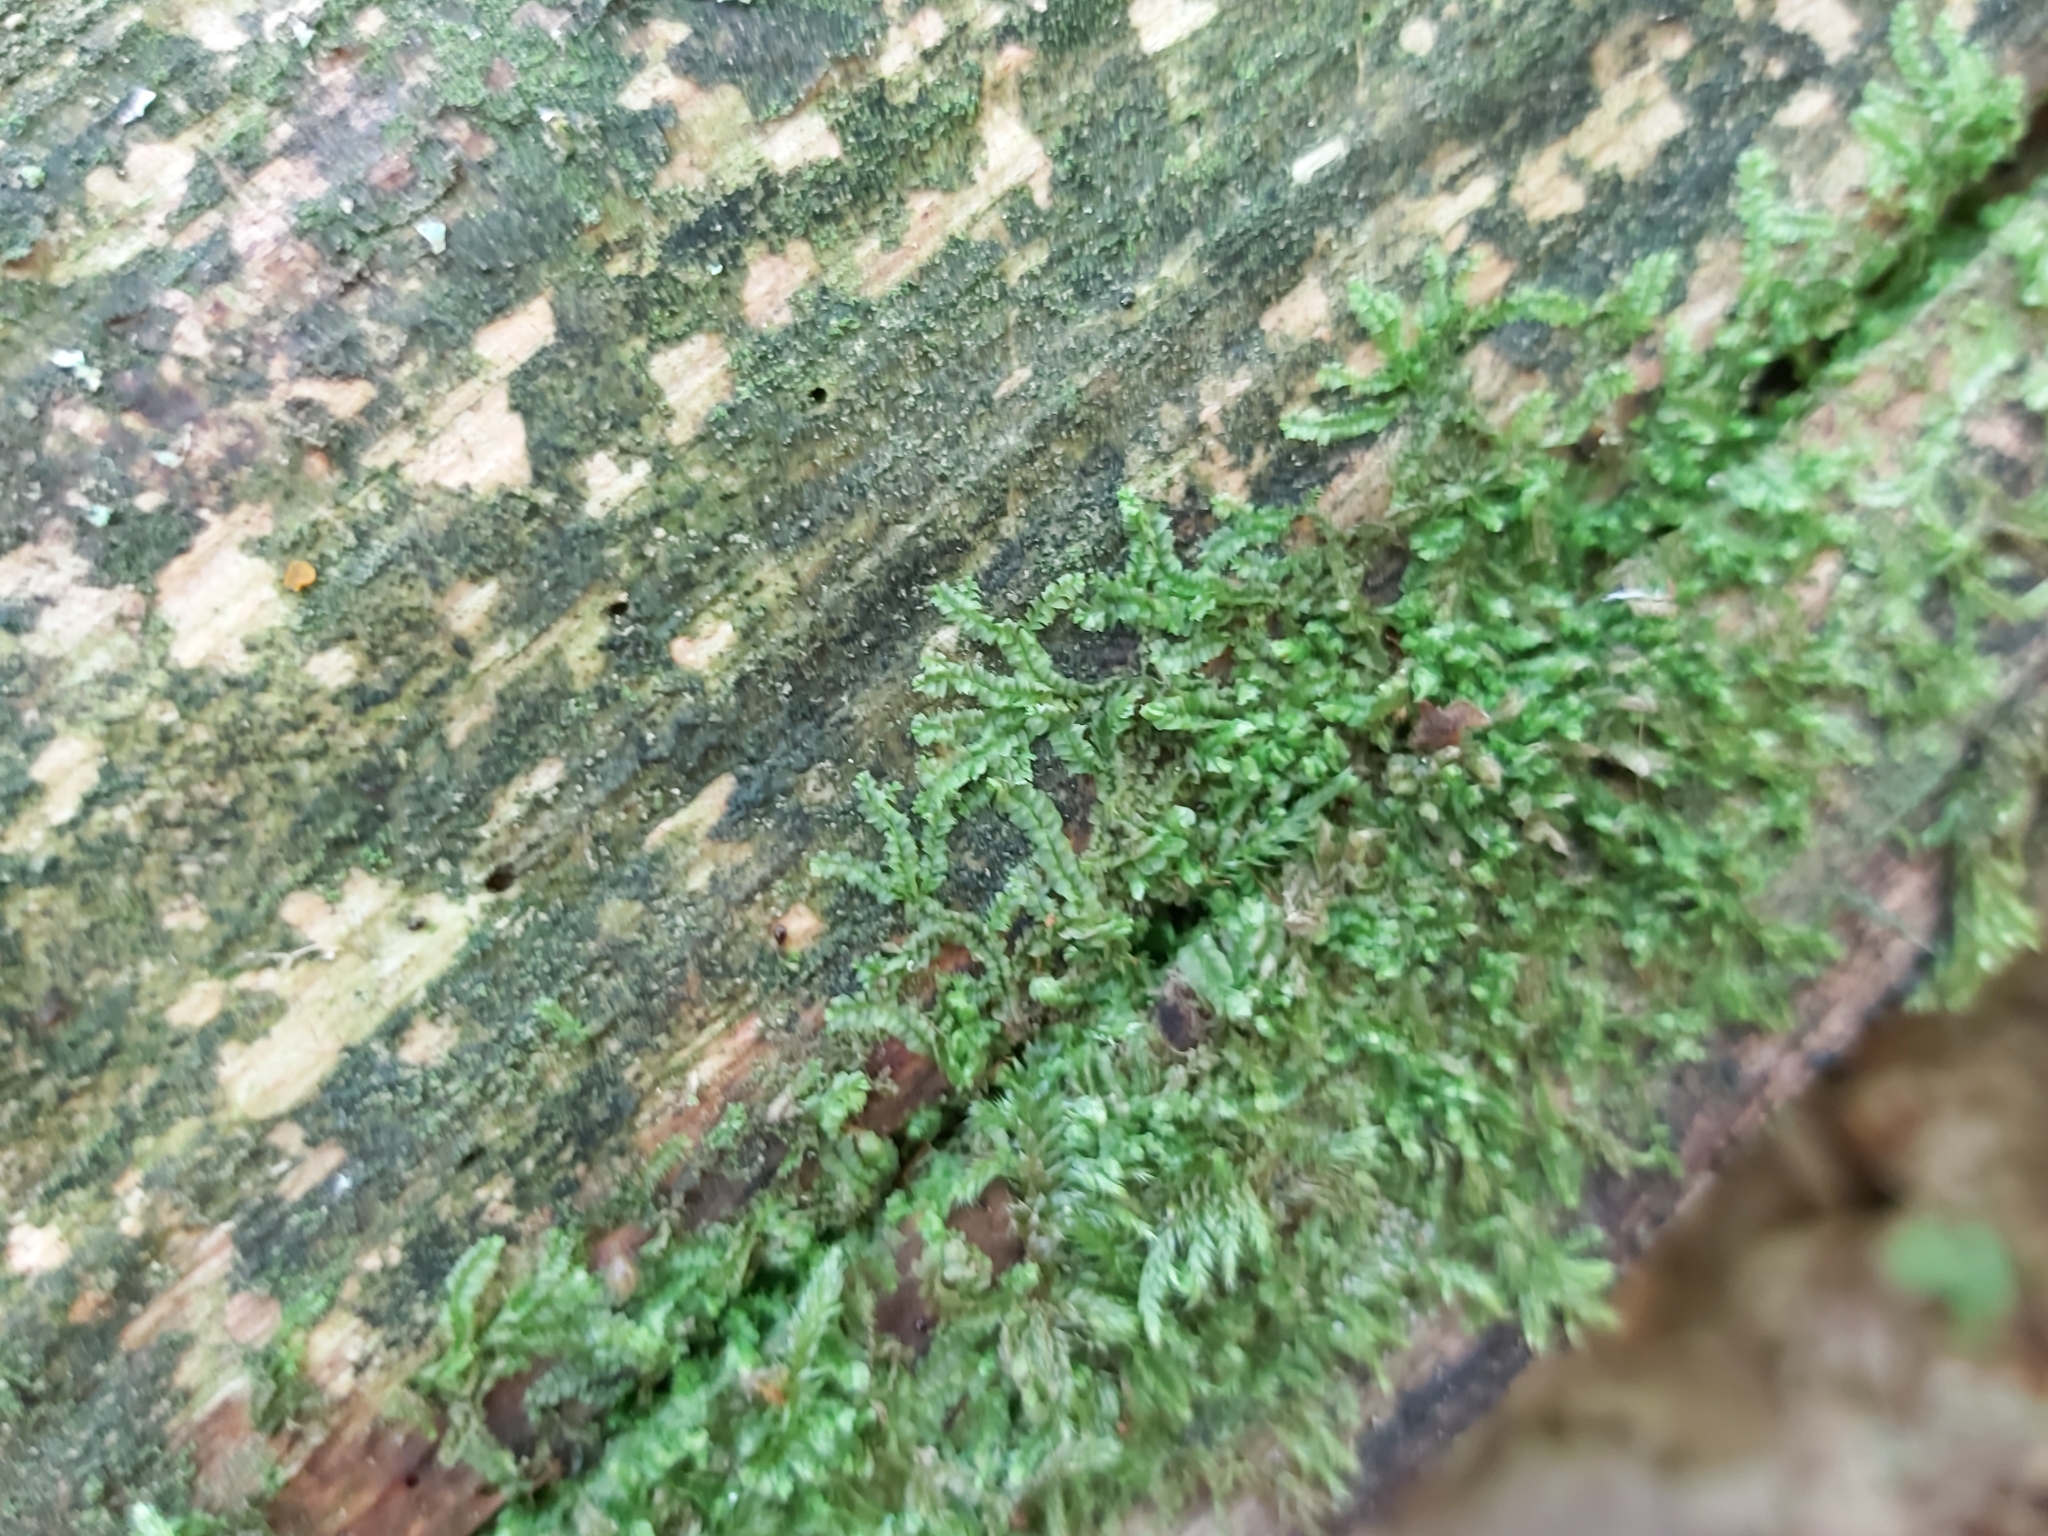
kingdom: Plantae
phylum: Marchantiophyta
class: Jungermanniopsida
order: Jungermanniales
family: Lophocoleaceae
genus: Lophocolea
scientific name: Lophocolea heterophylla
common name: Variable-leaved crestwort
